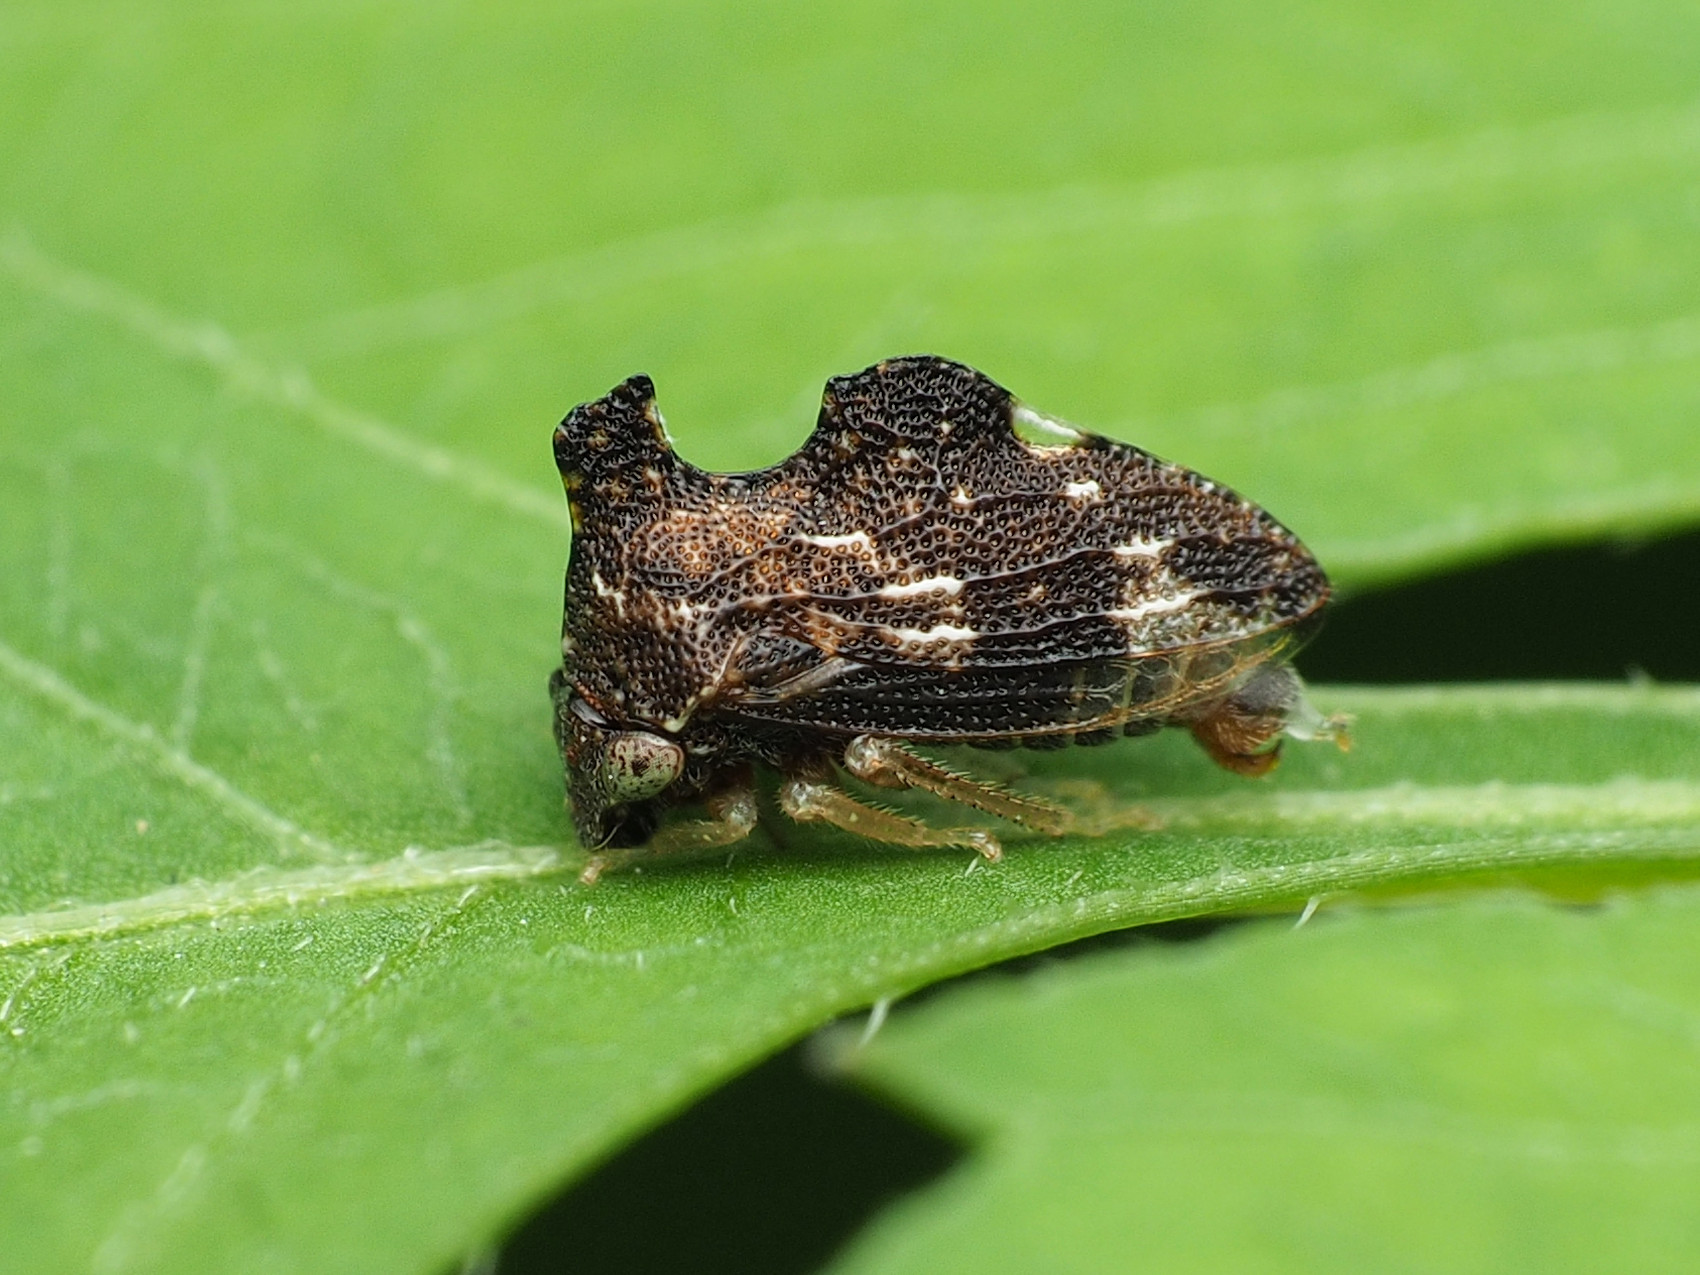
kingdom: Animalia
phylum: Arthropoda
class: Insecta
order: Hemiptera
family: Membracidae
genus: Entylia
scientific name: Entylia carinata
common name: Keeled treehopper
